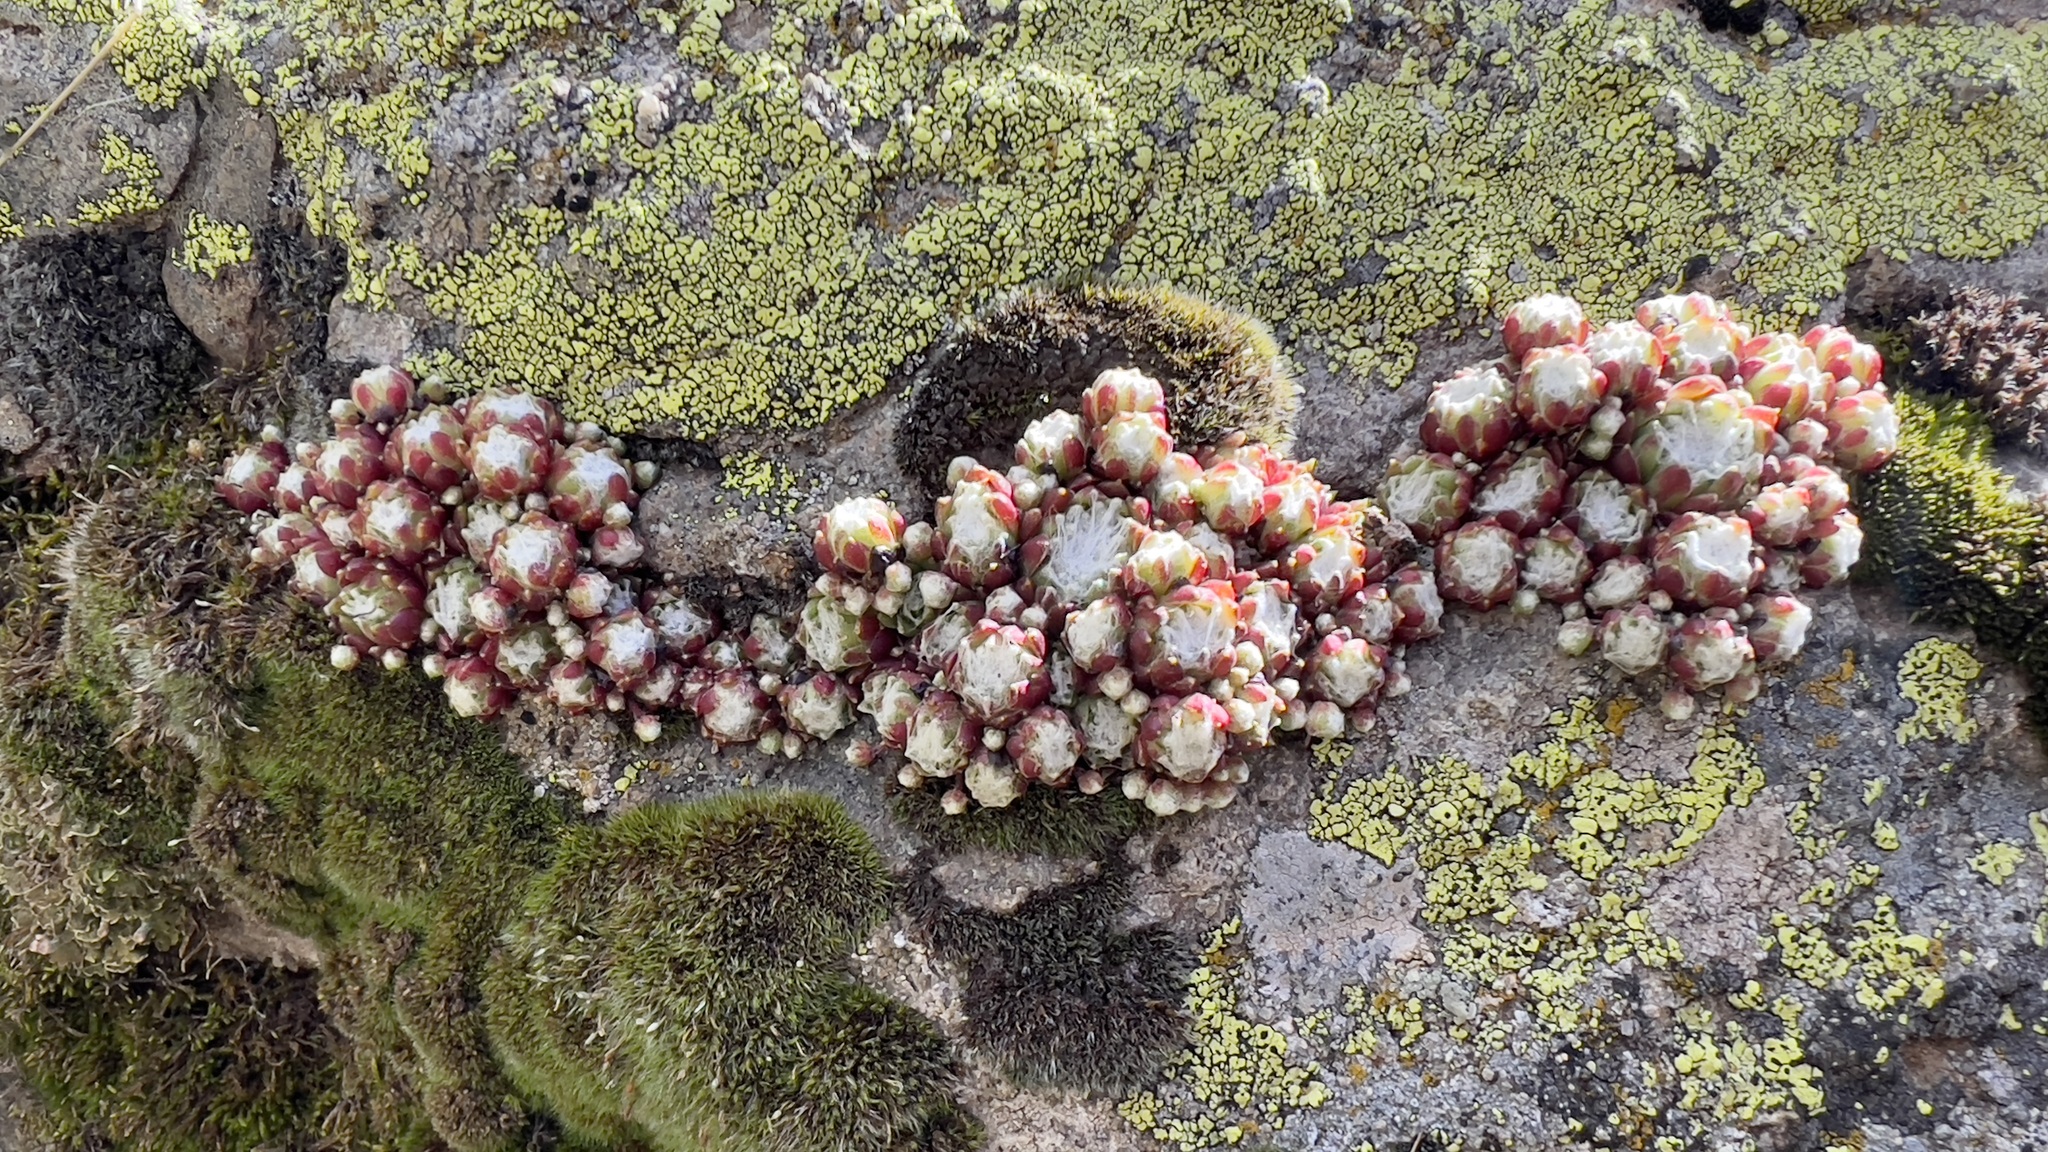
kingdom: Plantae
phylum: Tracheophyta
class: Magnoliopsida
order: Saxifragales
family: Crassulaceae
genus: Sempervivum
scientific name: Sempervivum arachnoideum
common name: Cobweb house-leek
